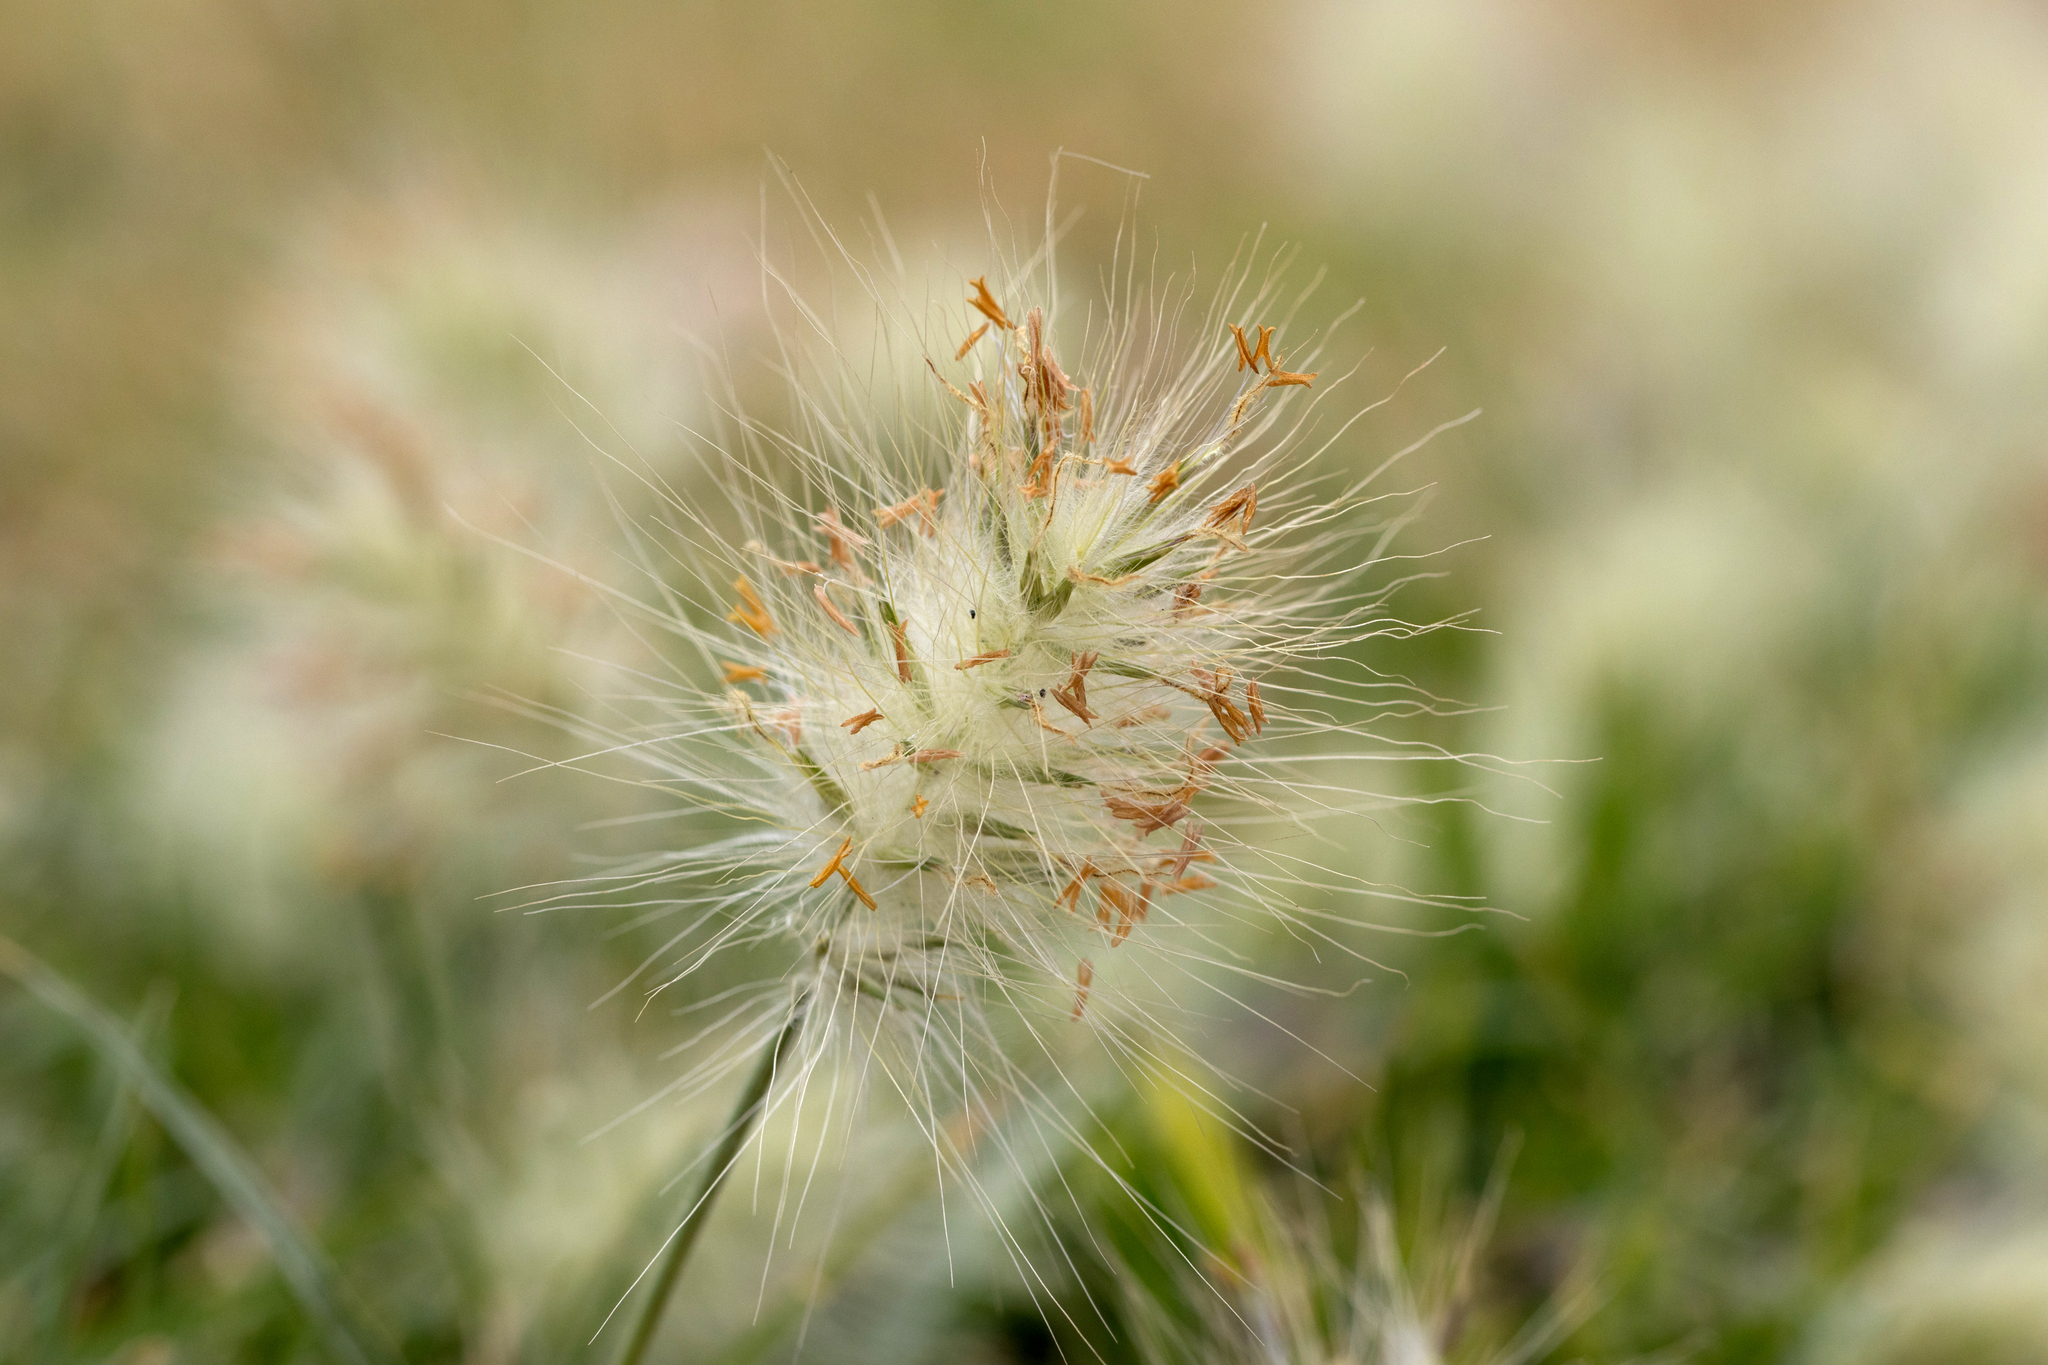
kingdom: Plantae
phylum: Tracheophyta
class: Liliopsida
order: Poales
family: Poaceae
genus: Cenchrus
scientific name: Cenchrus longisetus
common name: Feathertop
